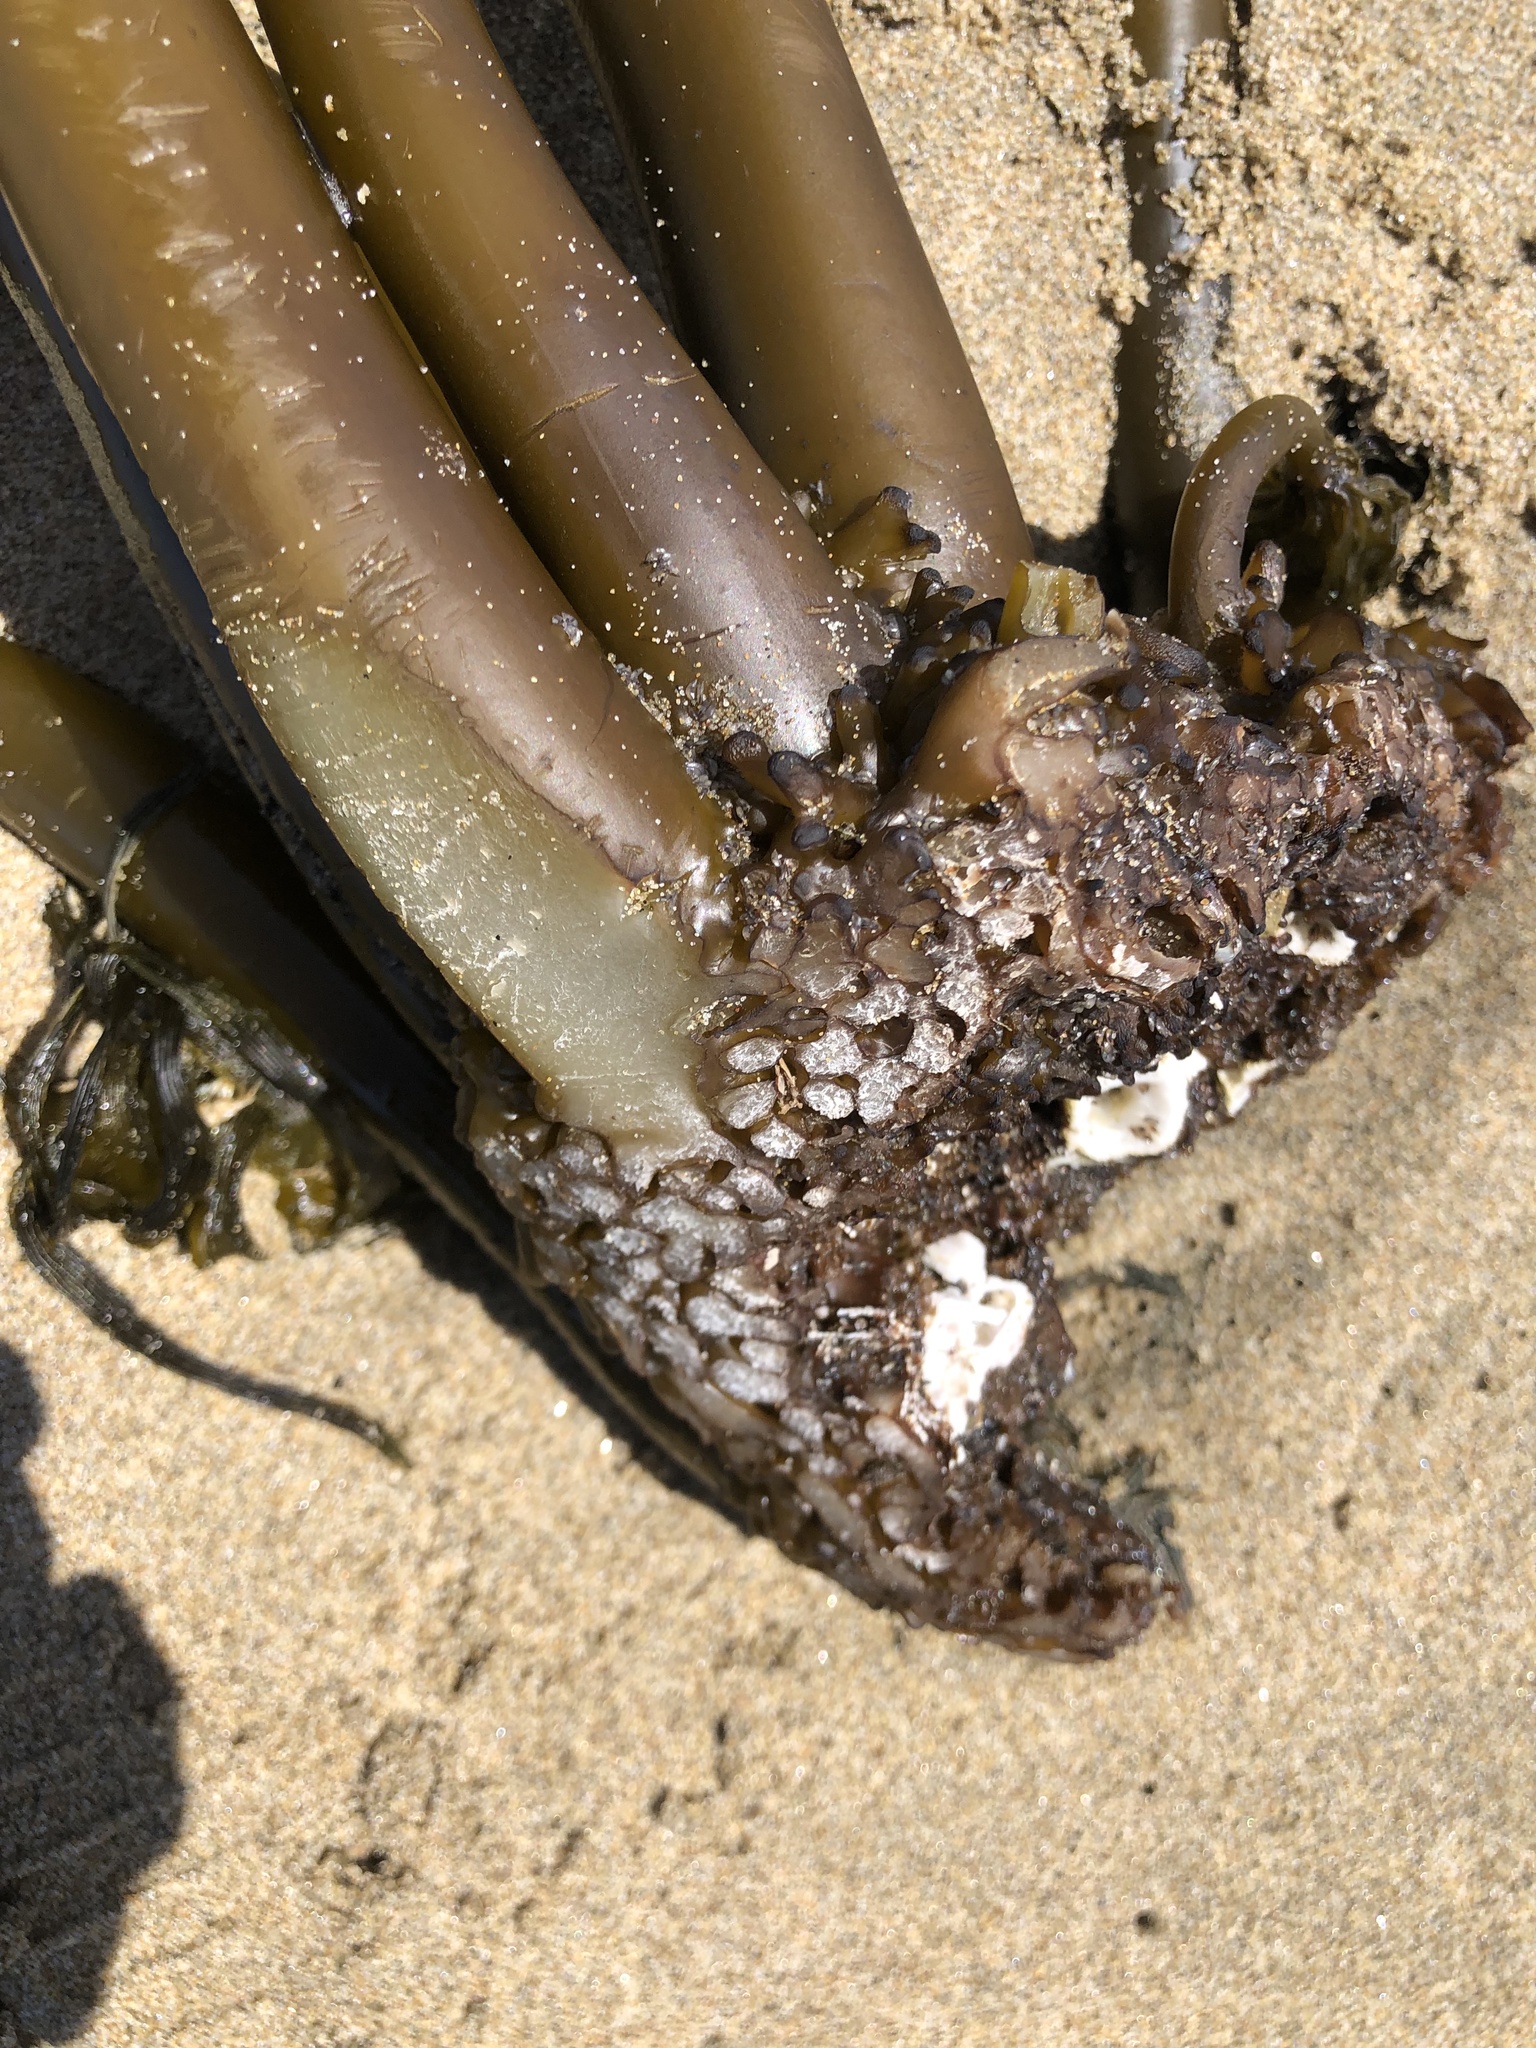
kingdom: Chromista
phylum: Ochrophyta
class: Phaeophyceae
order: Laminariales
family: Laminariaceae
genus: Postelsia
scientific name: Postelsia palmiformis
